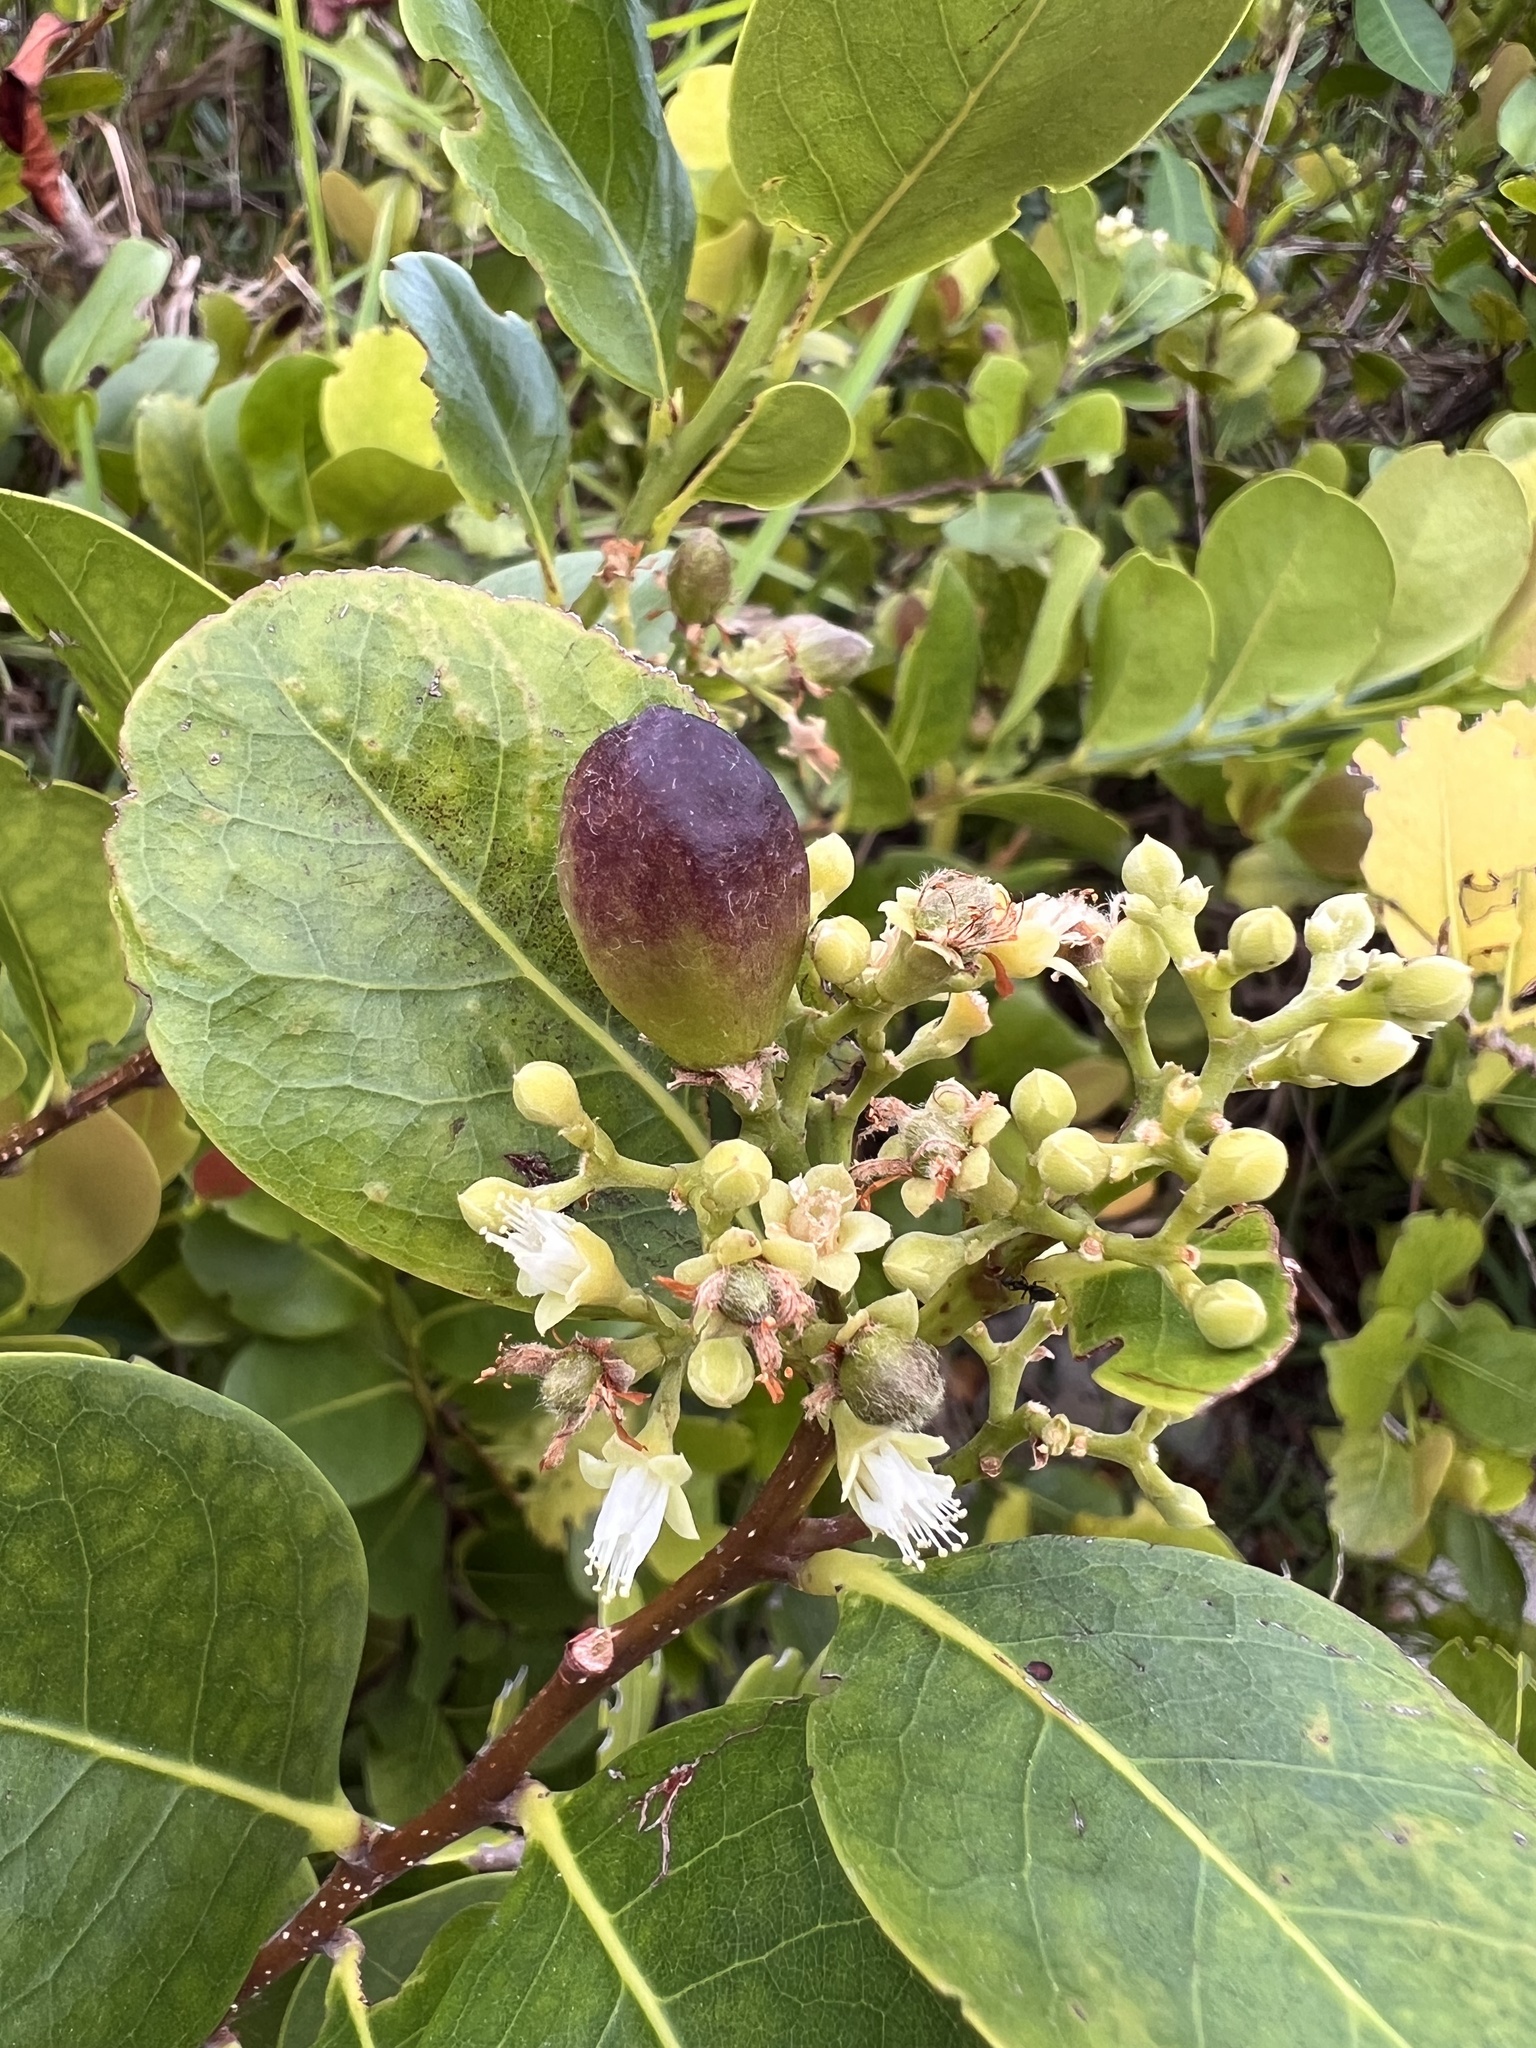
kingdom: Plantae
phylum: Tracheophyta
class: Magnoliopsida
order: Malpighiales
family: Chrysobalanaceae
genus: Chrysobalanus
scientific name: Chrysobalanus icaco
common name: Coco plum
